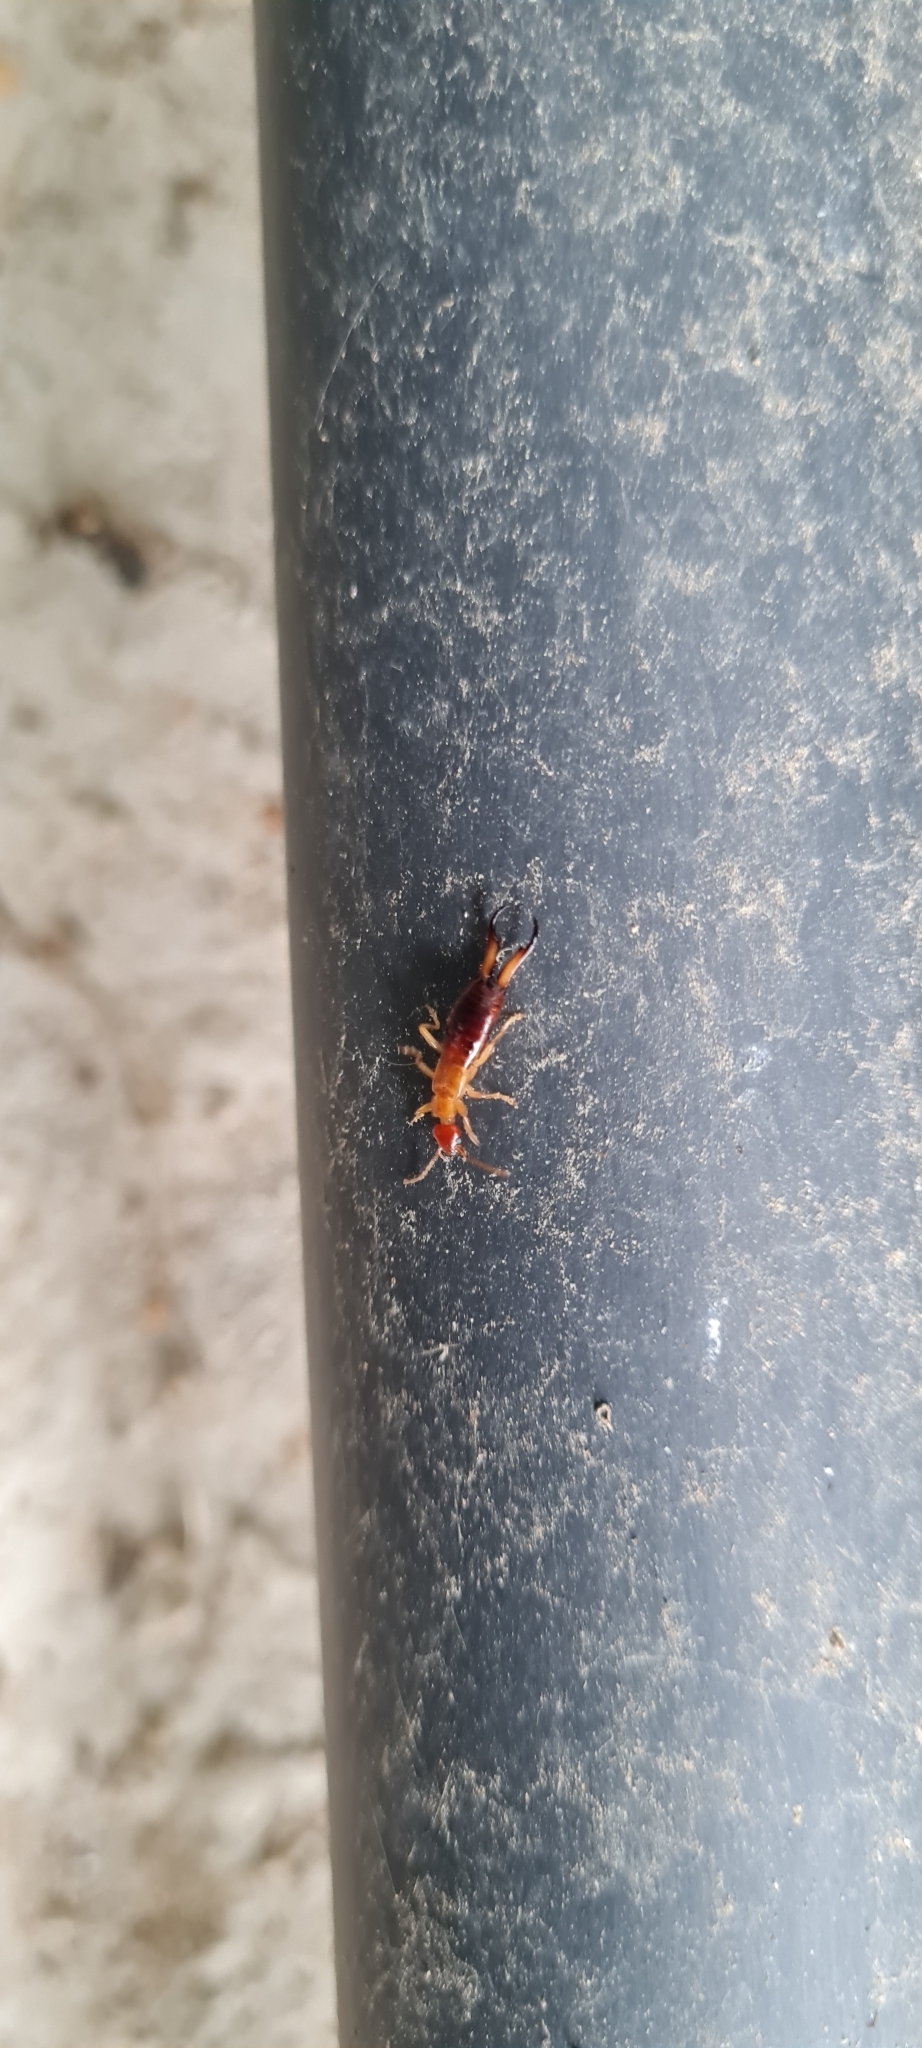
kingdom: Animalia
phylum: Arthropoda
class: Insecta
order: Dermaptera
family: Forficulidae
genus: Guanchia
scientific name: Guanchia pubescens
